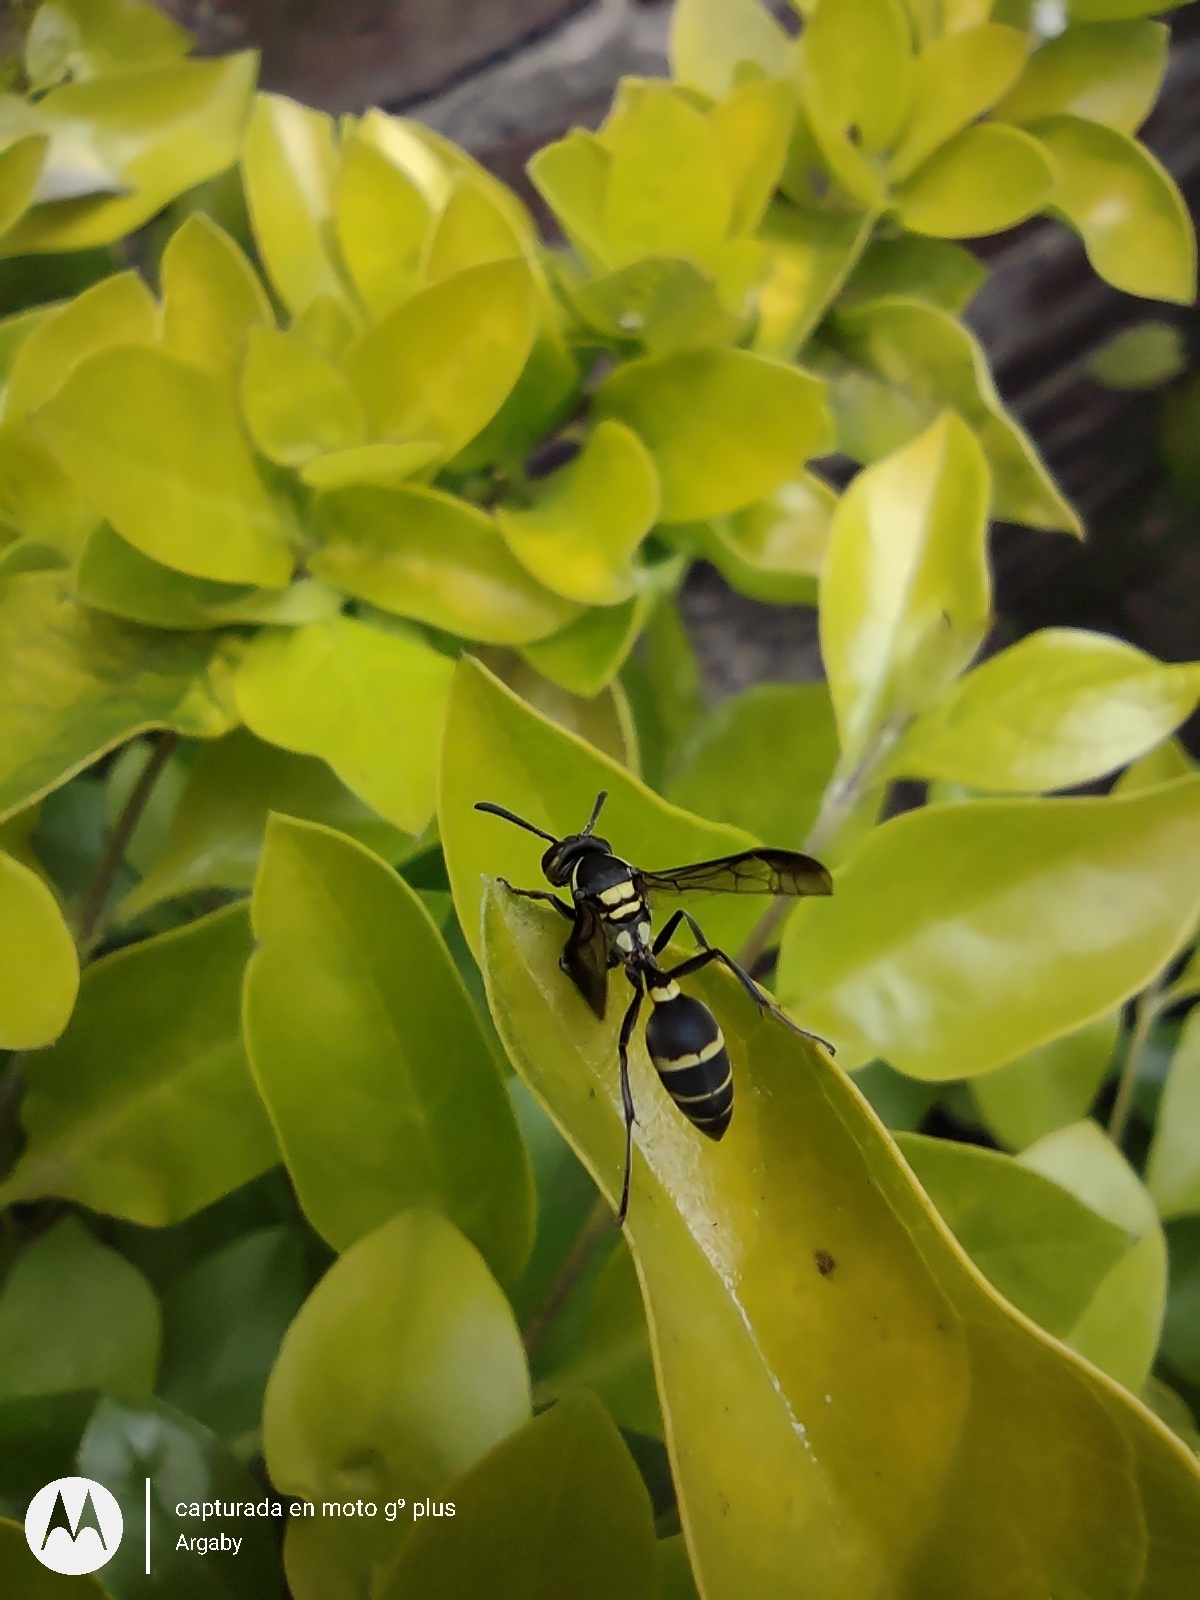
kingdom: Animalia
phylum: Arthropoda
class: Insecta
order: Hymenoptera
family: Eumenidae
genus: Polybia
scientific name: Polybia occidentalis
